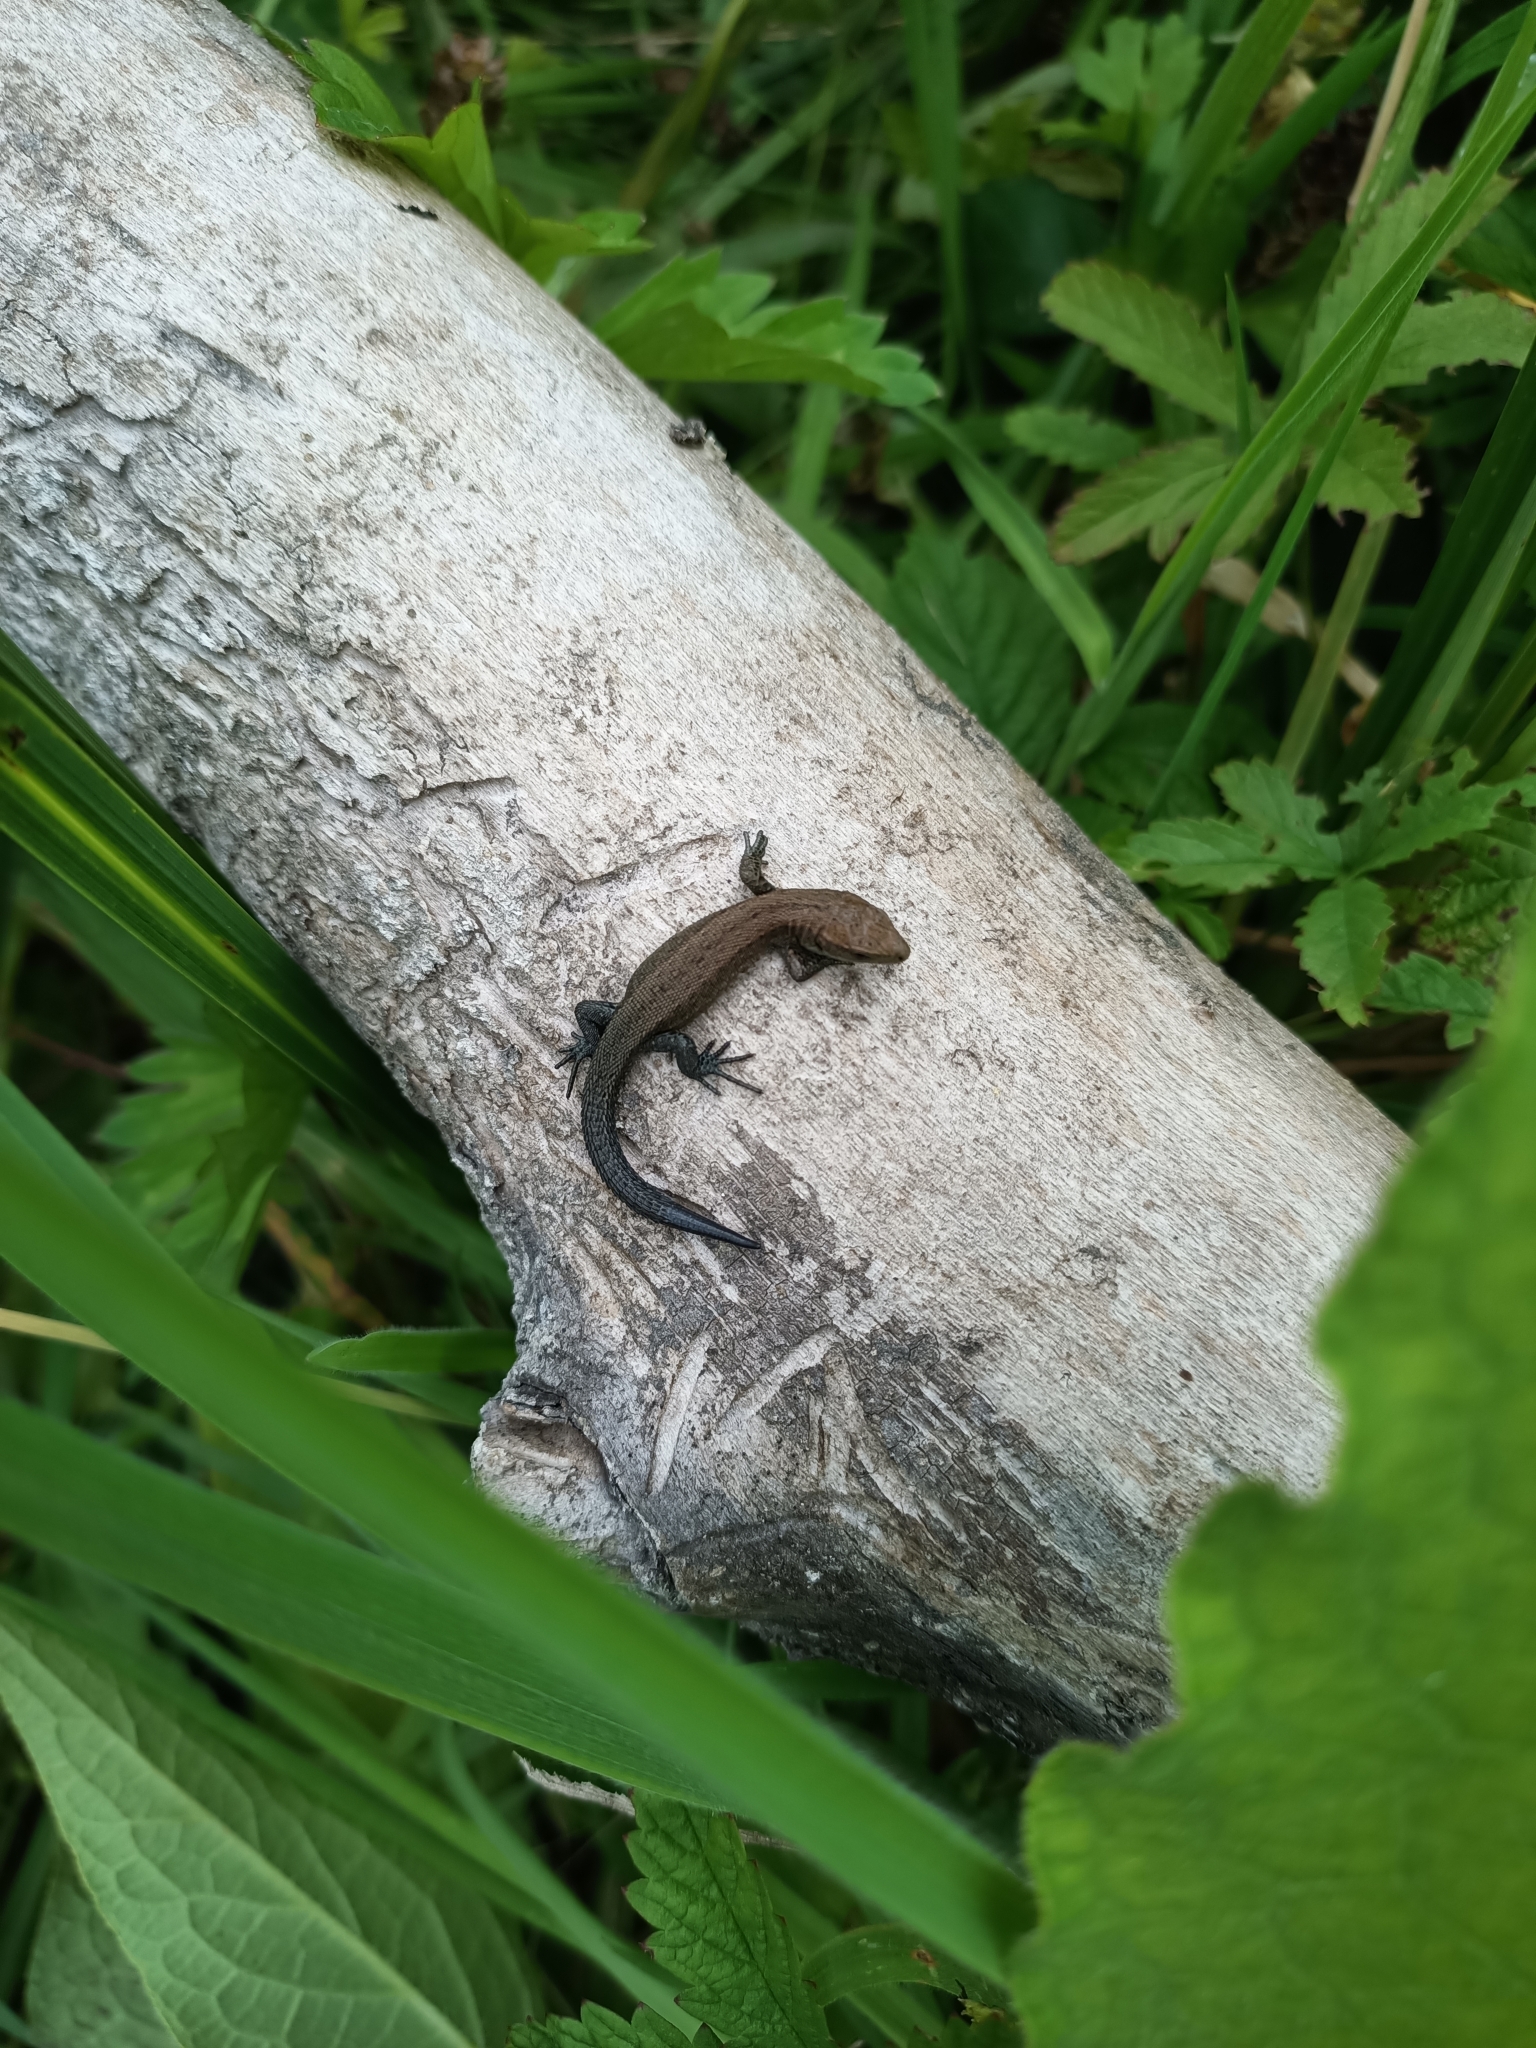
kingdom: Animalia
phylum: Chordata
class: Squamata
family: Lacertidae
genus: Zootoca
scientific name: Zootoca vivipara
